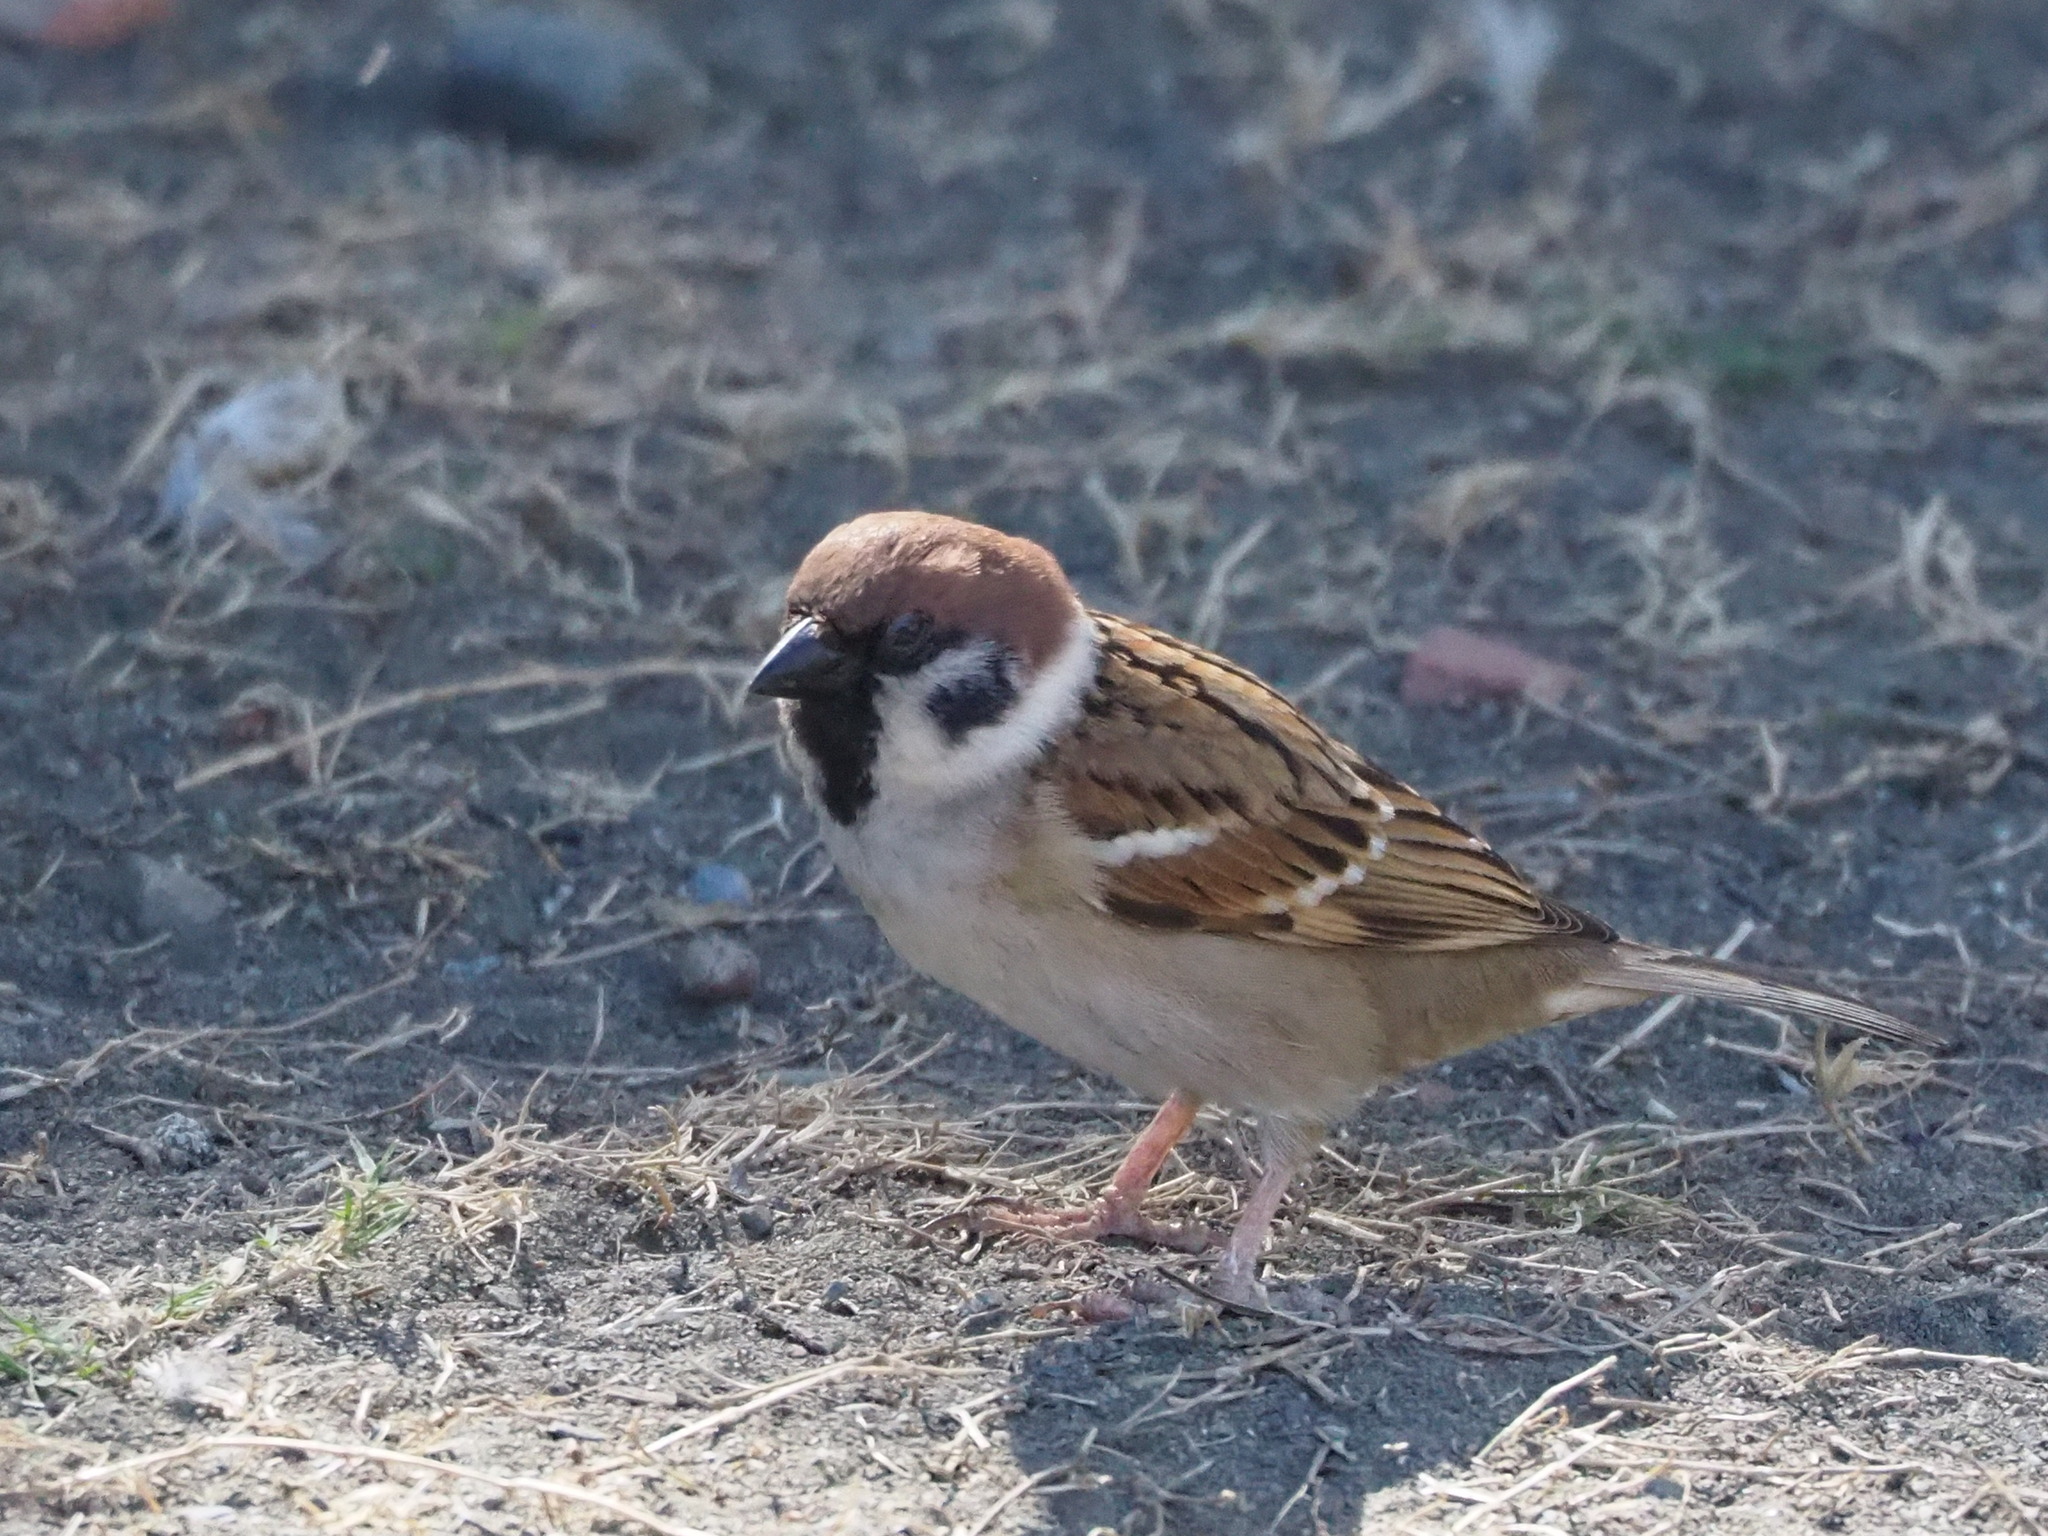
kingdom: Animalia
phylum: Chordata
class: Aves
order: Passeriformes
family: Passeridae
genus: Passer
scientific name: Passer montanus
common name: Eurasian tree sparrow
